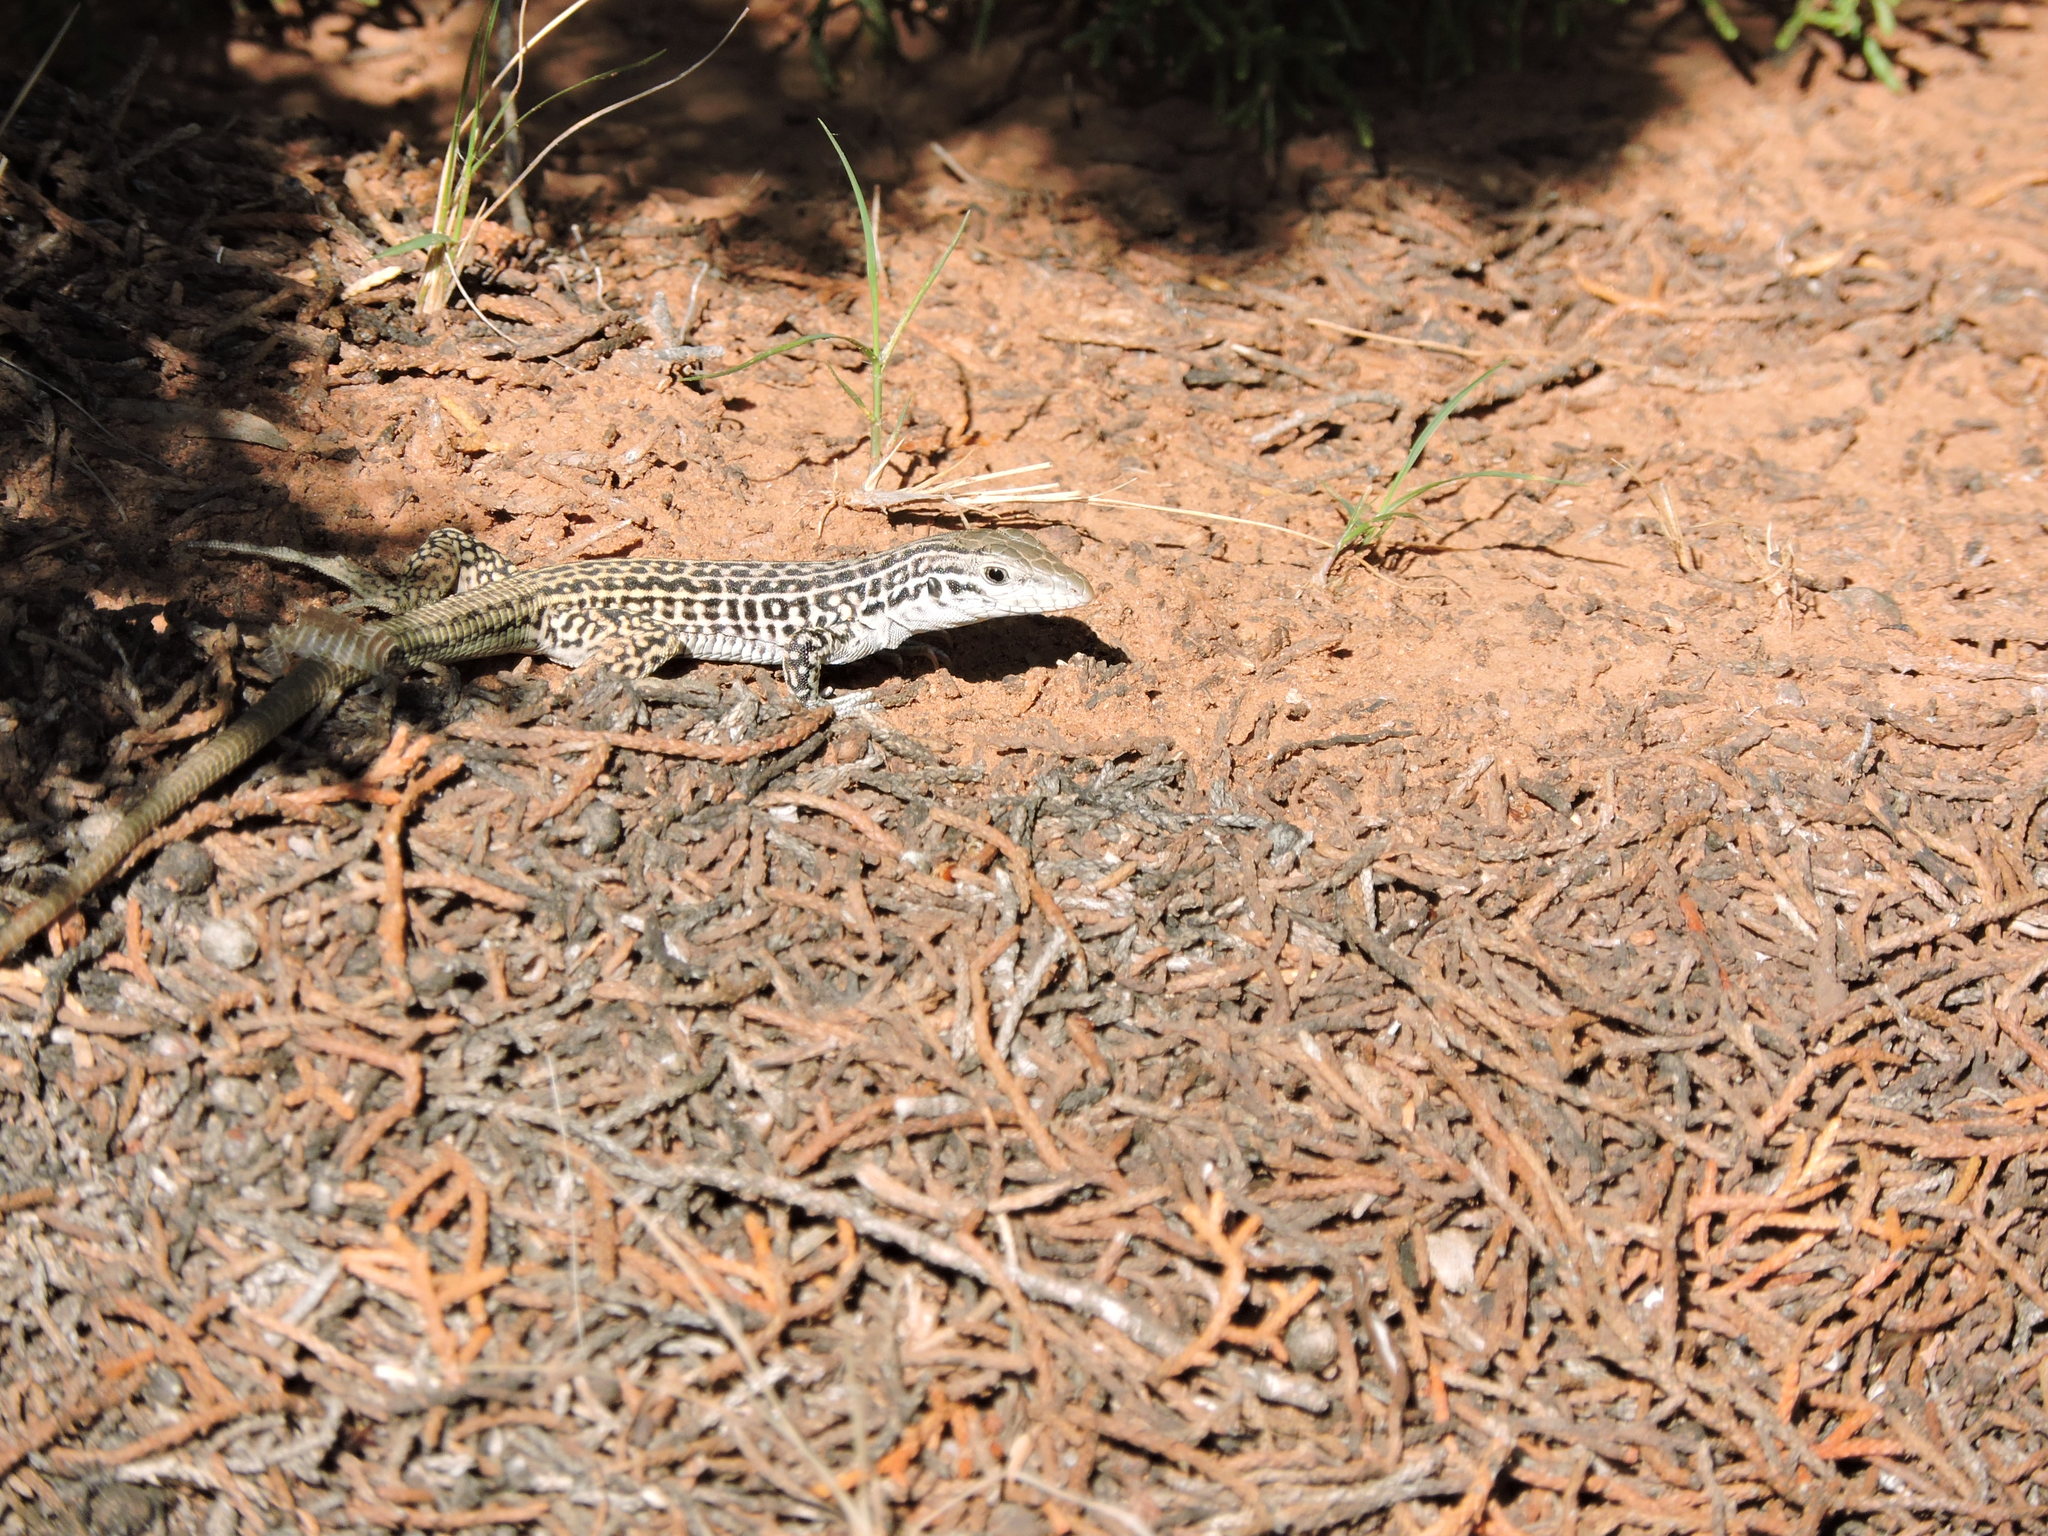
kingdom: Animalia
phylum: Chordata
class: Squamata
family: Teiidae
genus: Aspidoscelis
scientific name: Aspidoscelis tesselatus
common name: Common checkered whiptail [tesselata]
